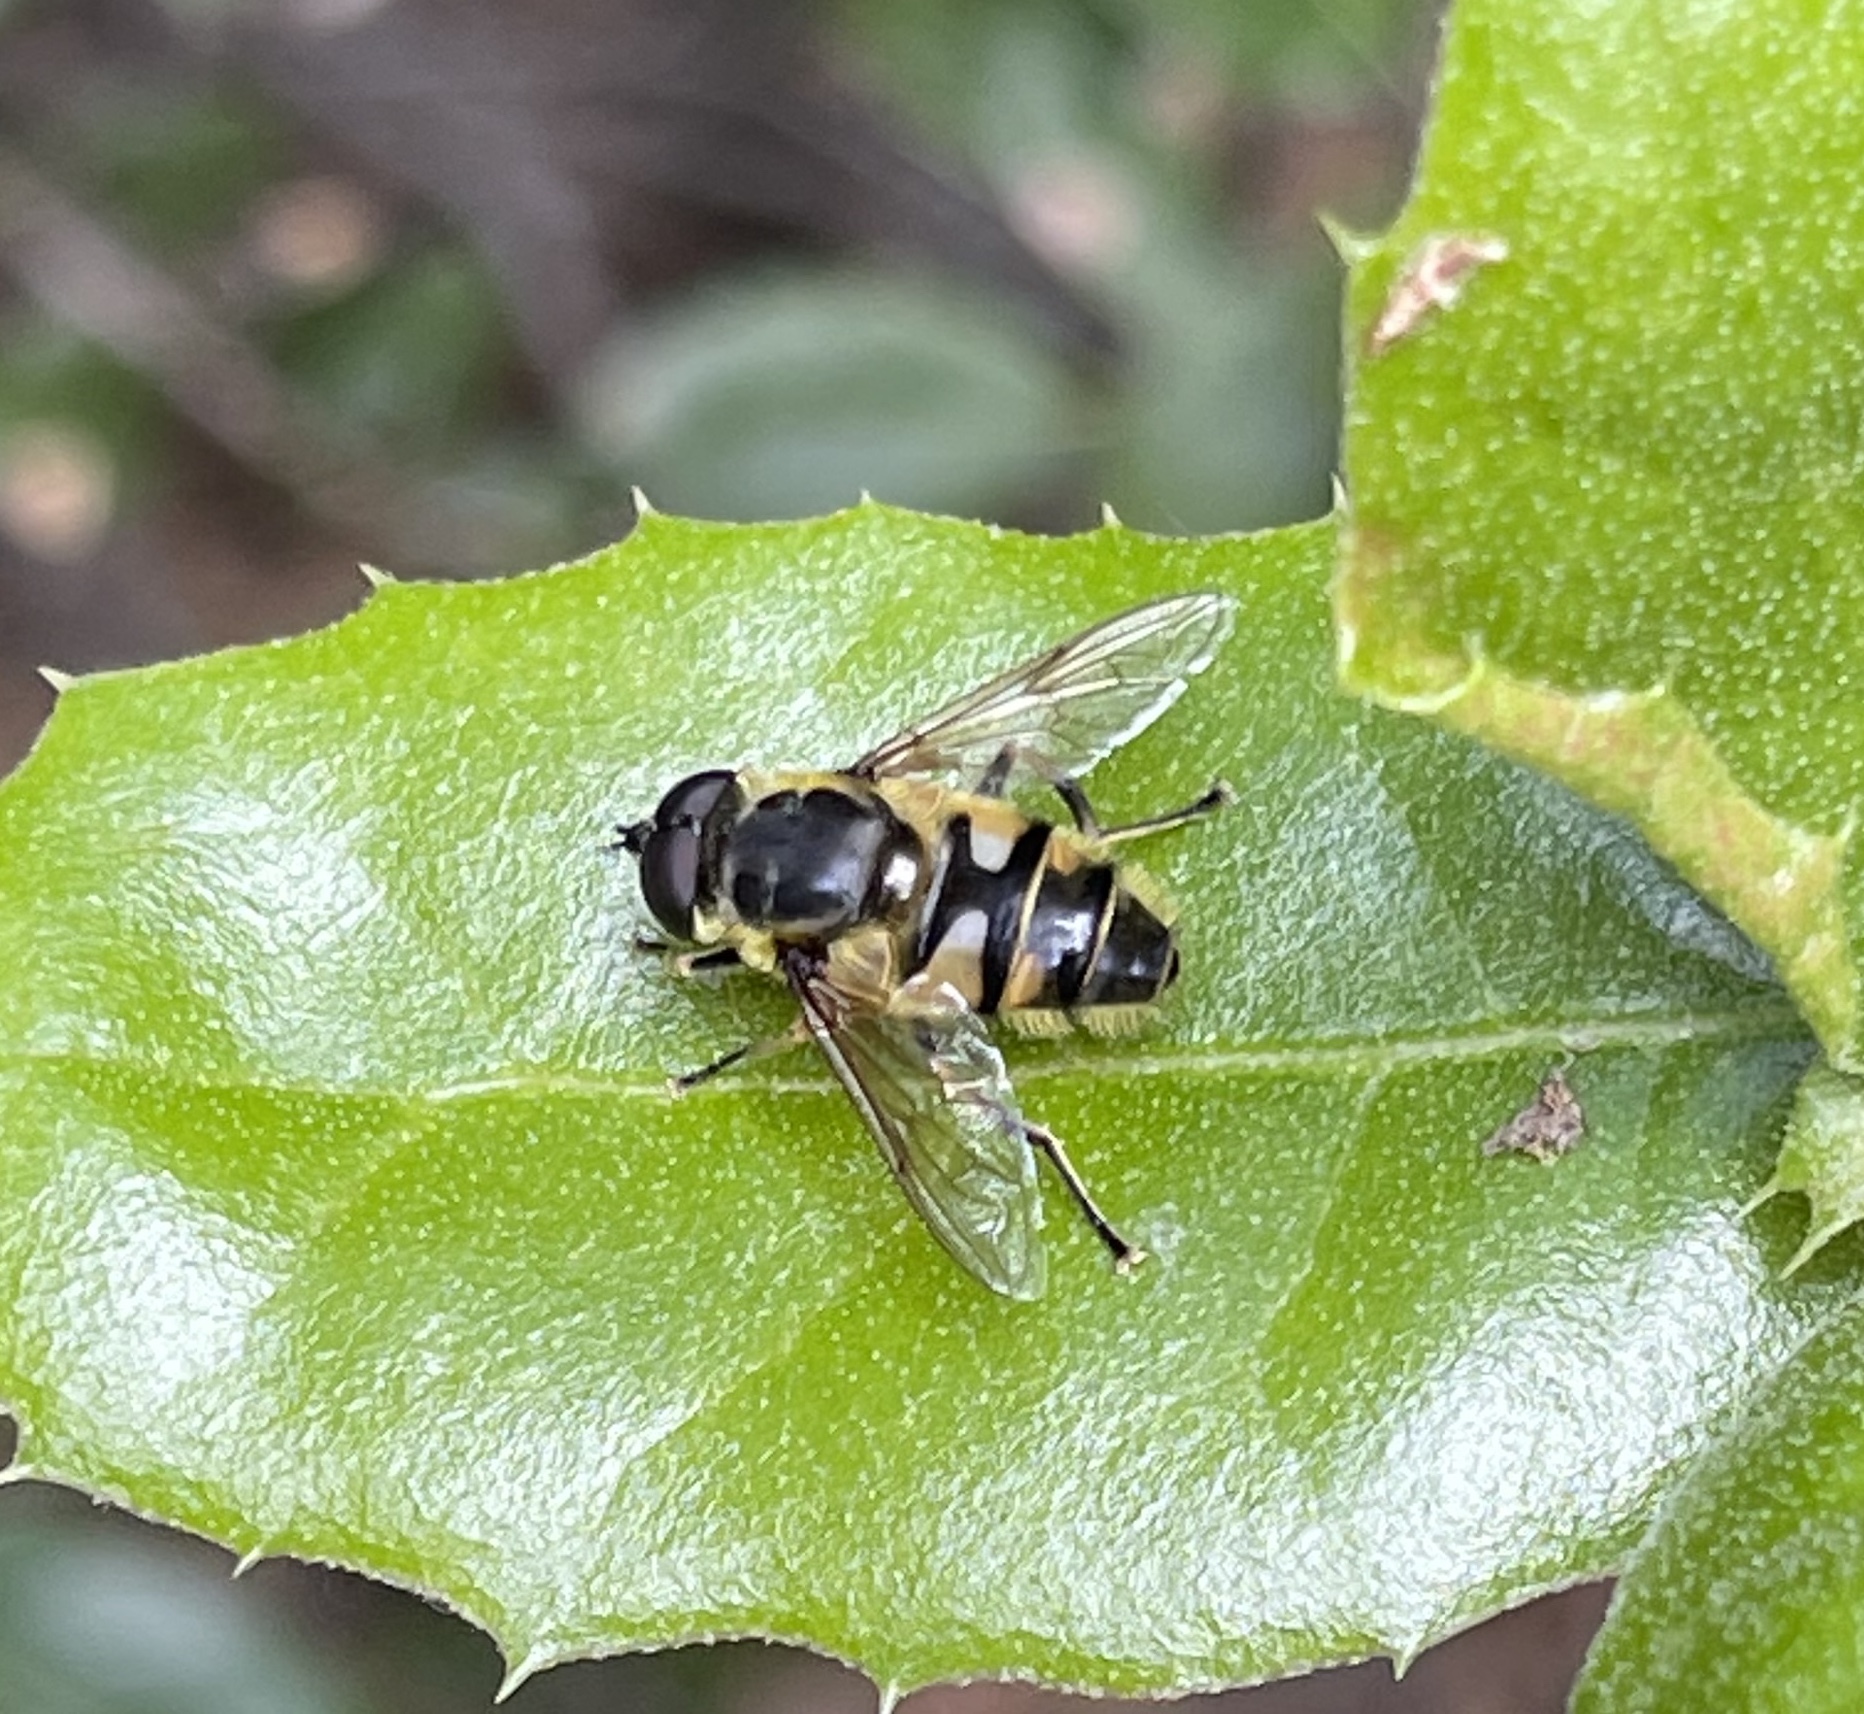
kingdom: Animalia
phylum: Arthropoda
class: Insecta
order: Diptera
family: Syrphidae
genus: Myathropa
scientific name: Myathropa florea
